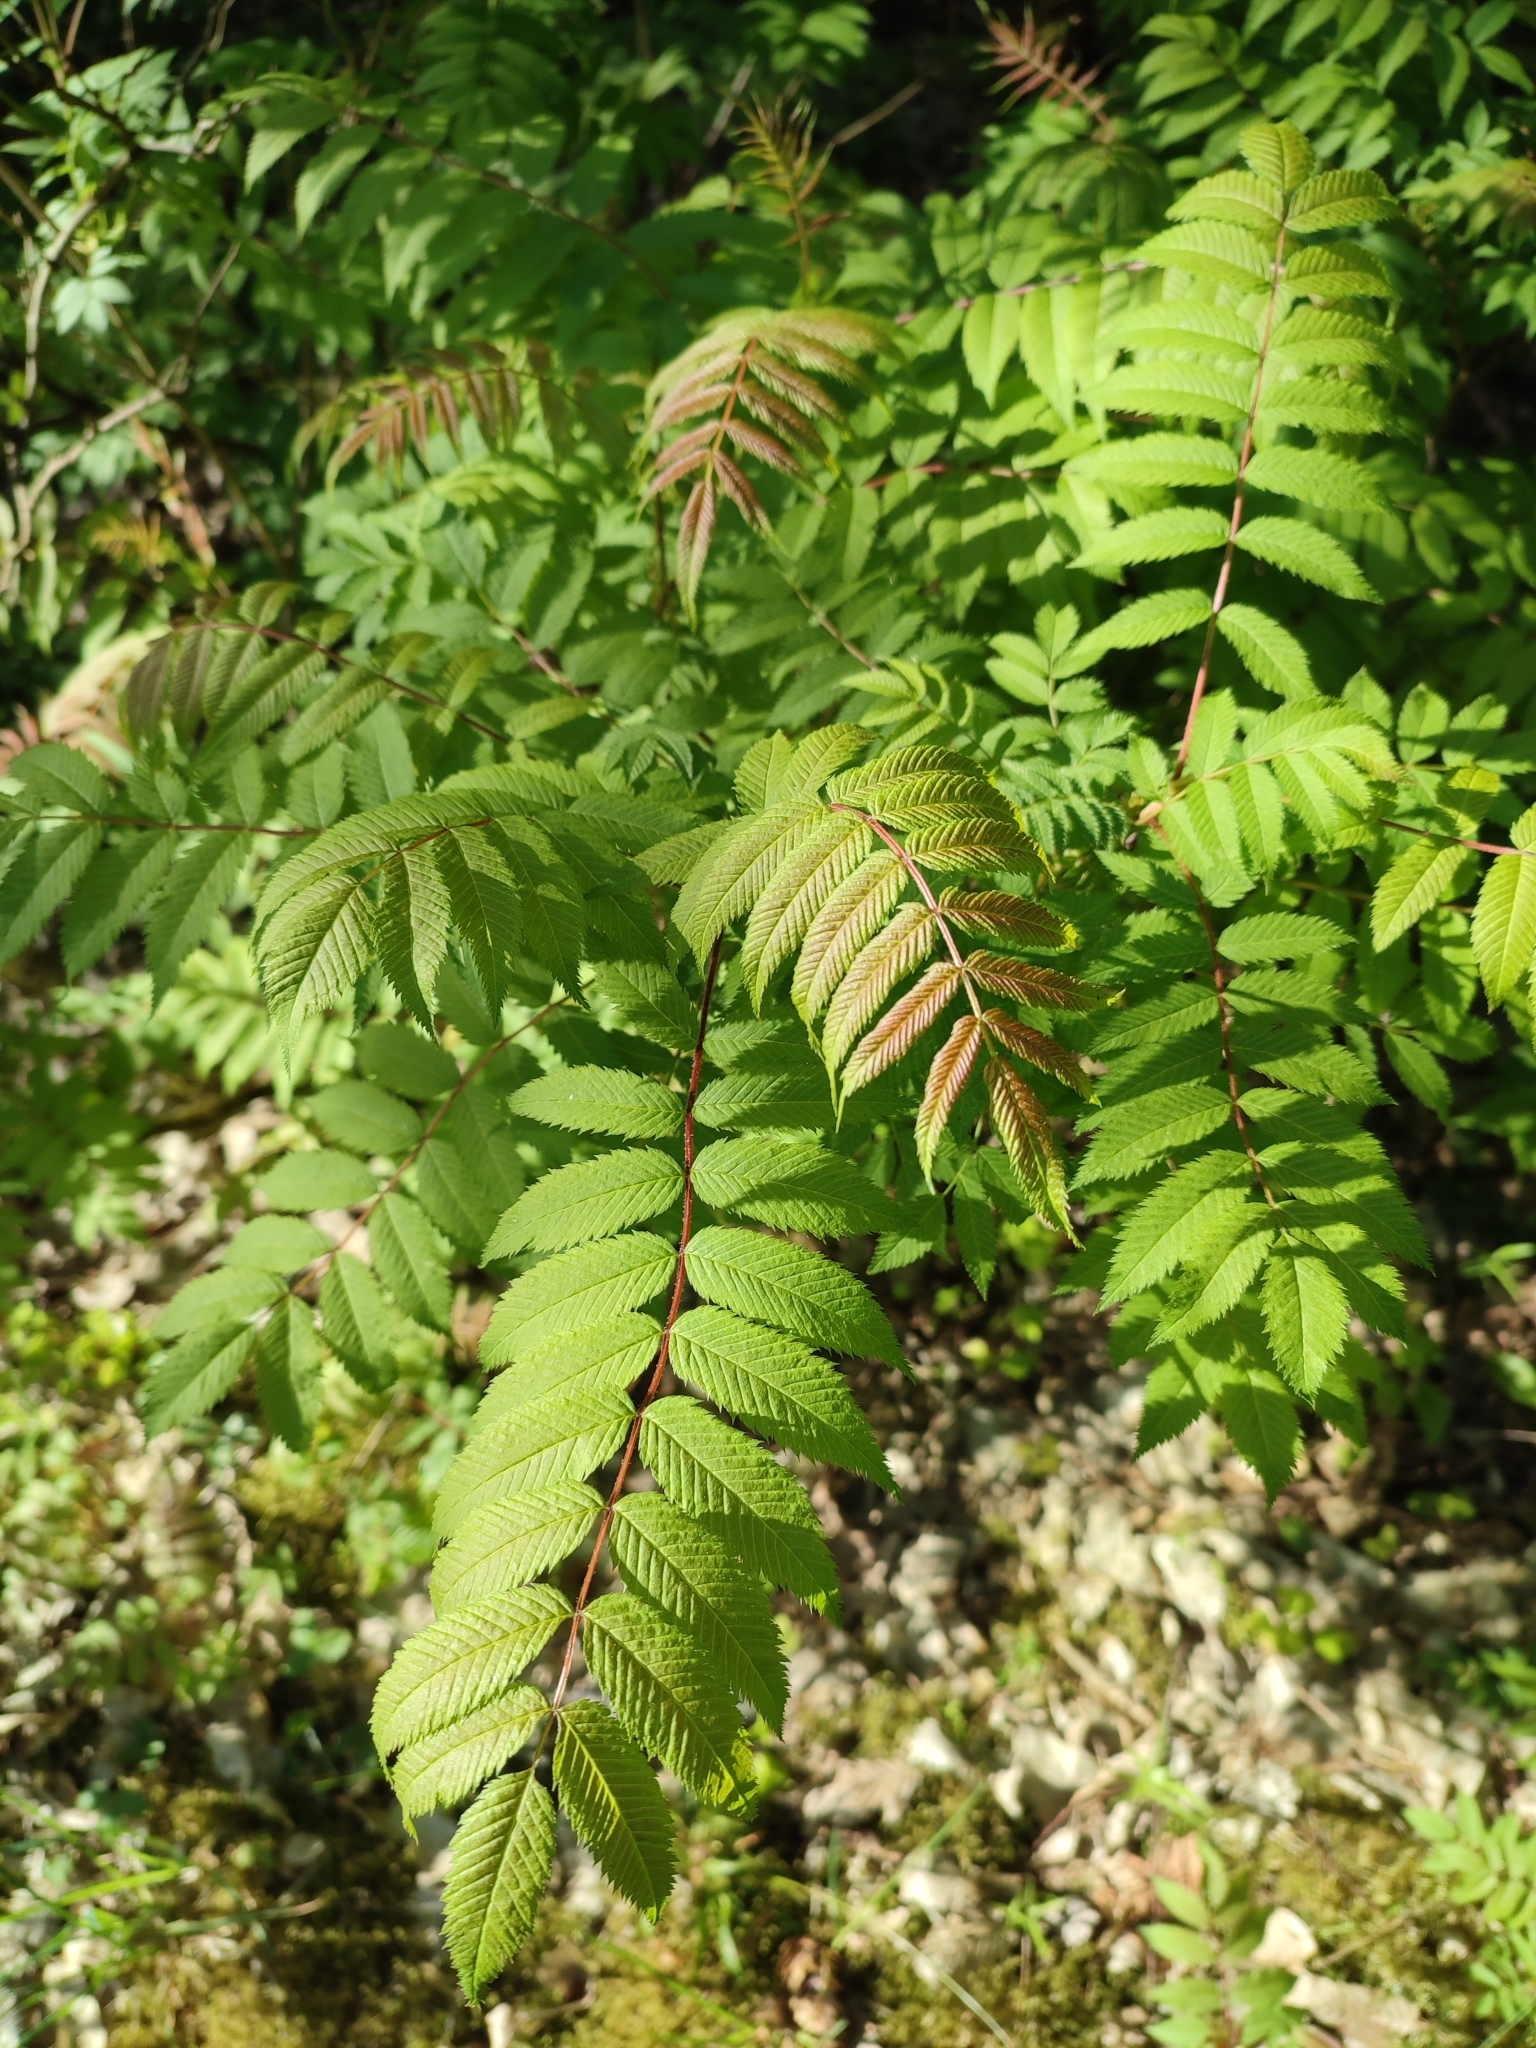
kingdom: Plantae
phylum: Tracheophyta
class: Magnoliopsida
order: Rosales
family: Rosaceae
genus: Sorbaria
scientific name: Sorbaria sorbifolia
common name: False spiraea
